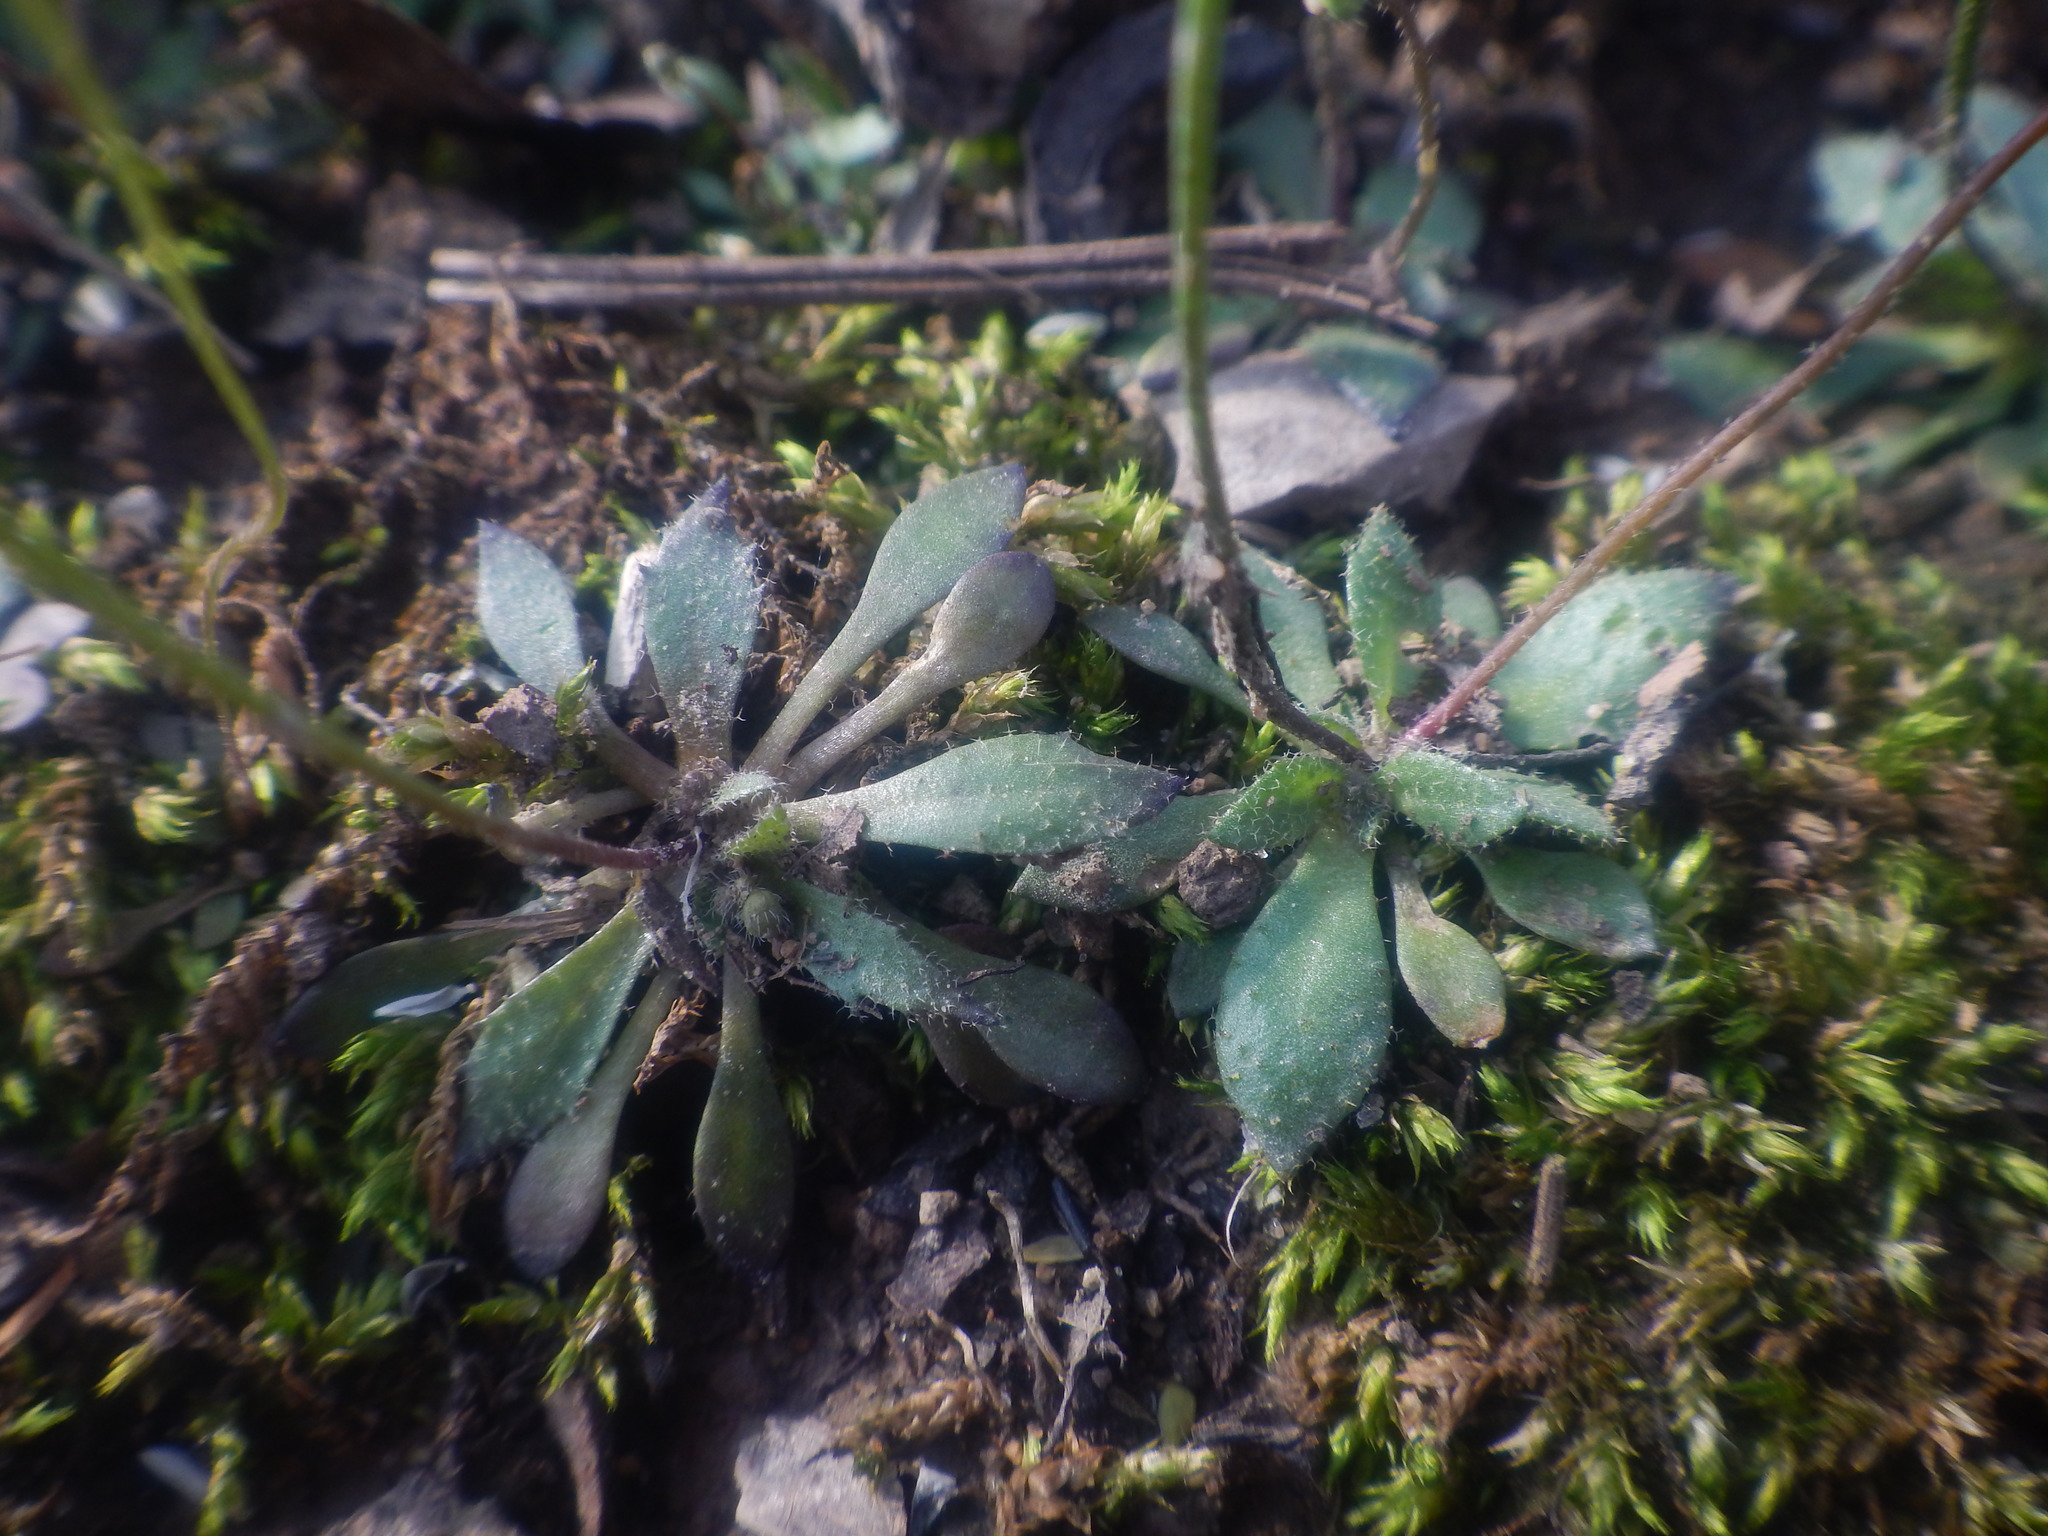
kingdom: Plantae
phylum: Tracheophyta
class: Magnoliopsida
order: Brassicales
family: Brassicaceae
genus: Draba
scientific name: Draba verna
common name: Spring draba
